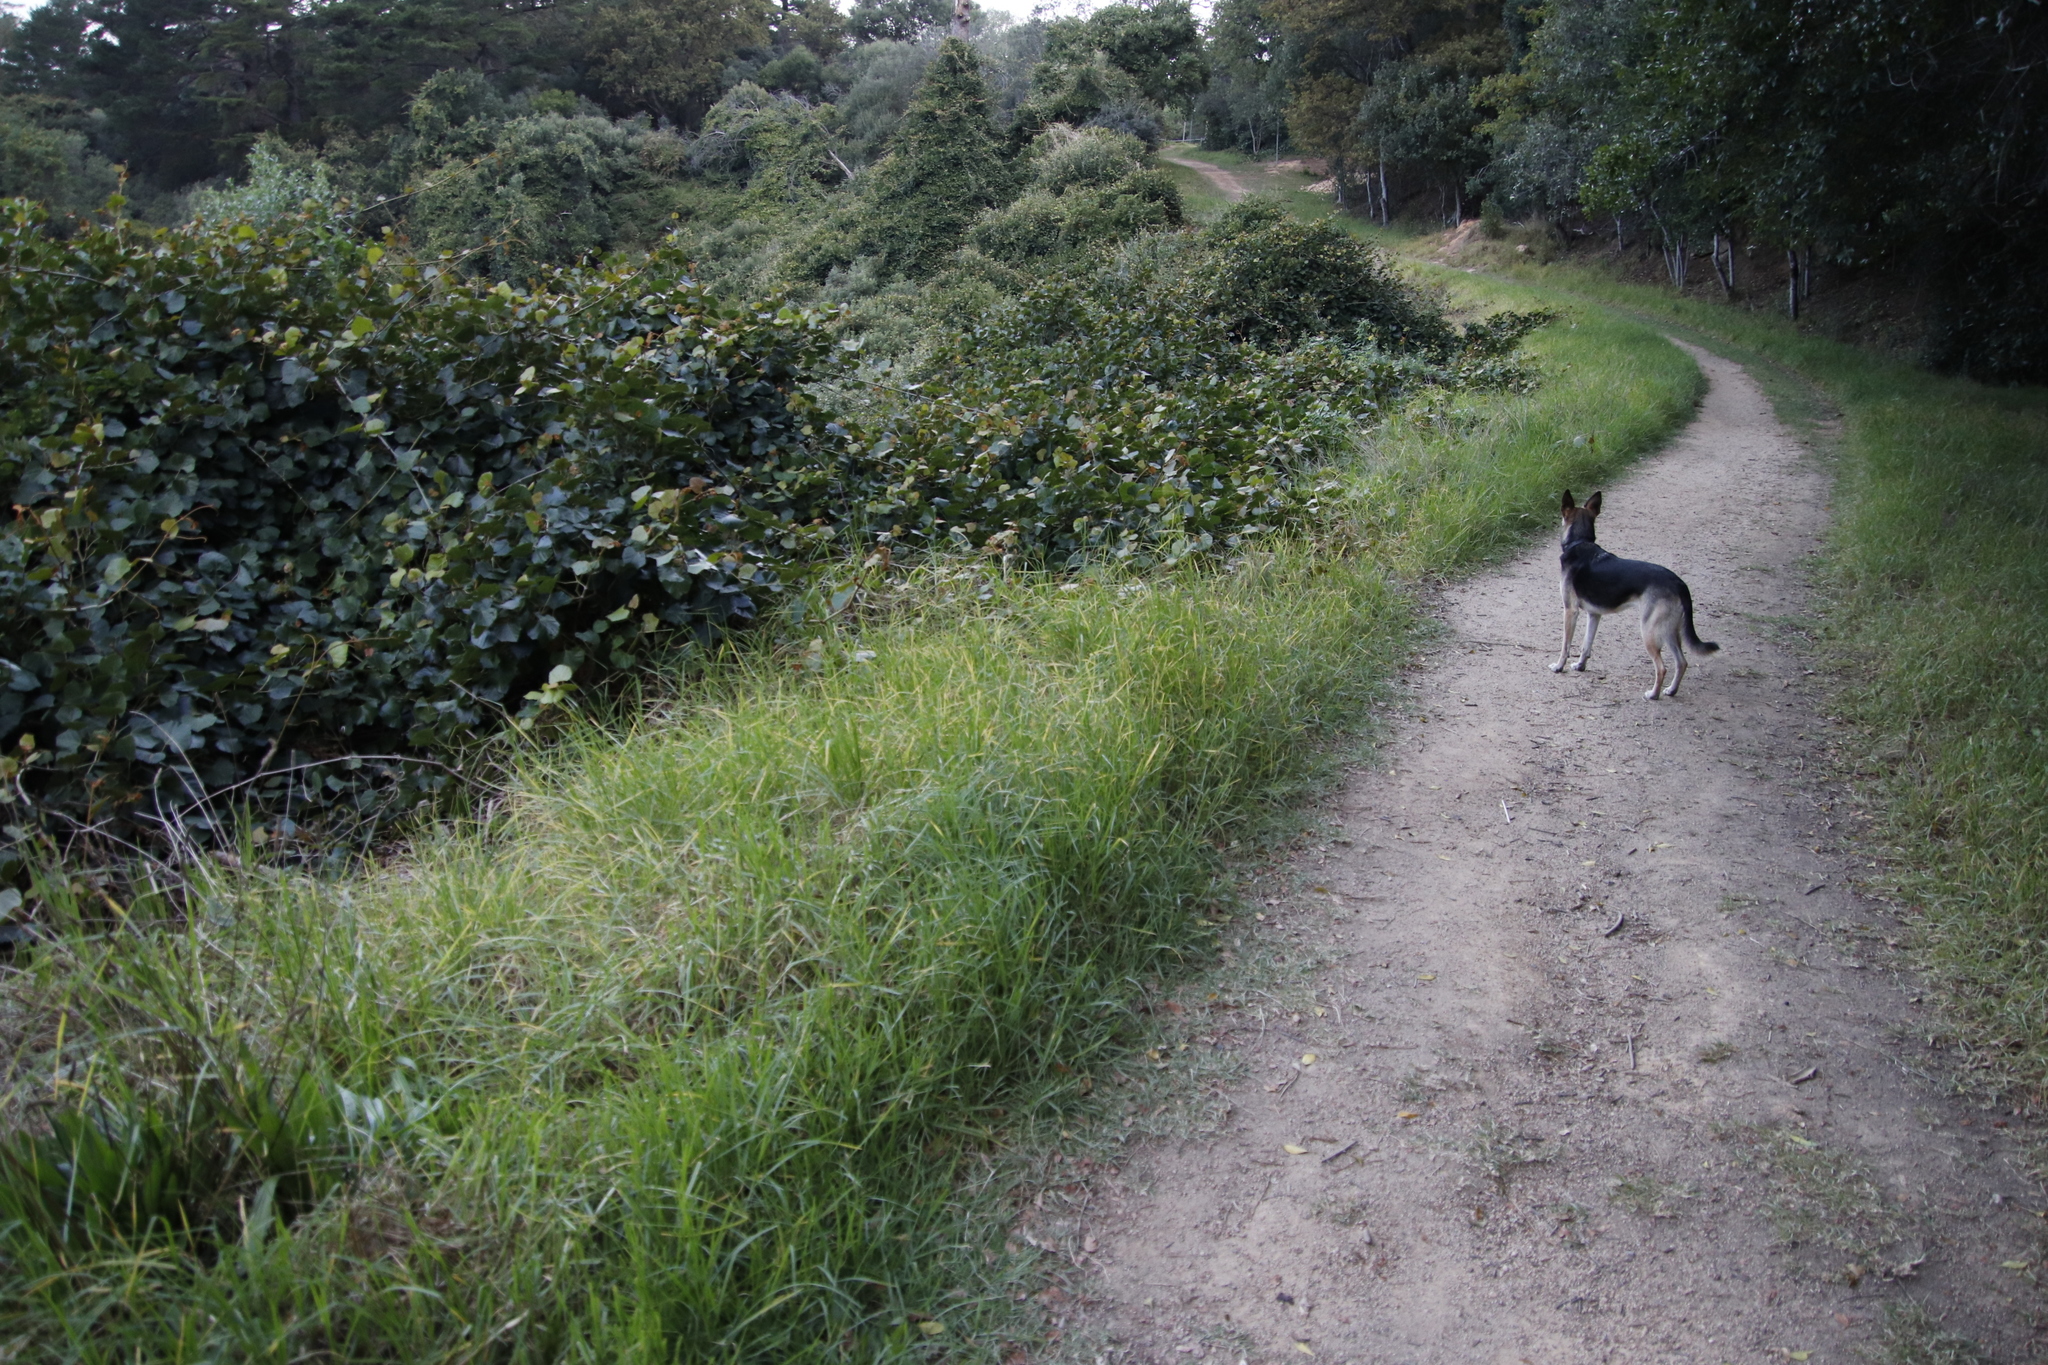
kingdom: Plantae
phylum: Tracheophyta
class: Liliopsida
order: Poales
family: Poaceae
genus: Cenchrus
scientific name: Cenchrus clandestinus
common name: Kikuyugrass
